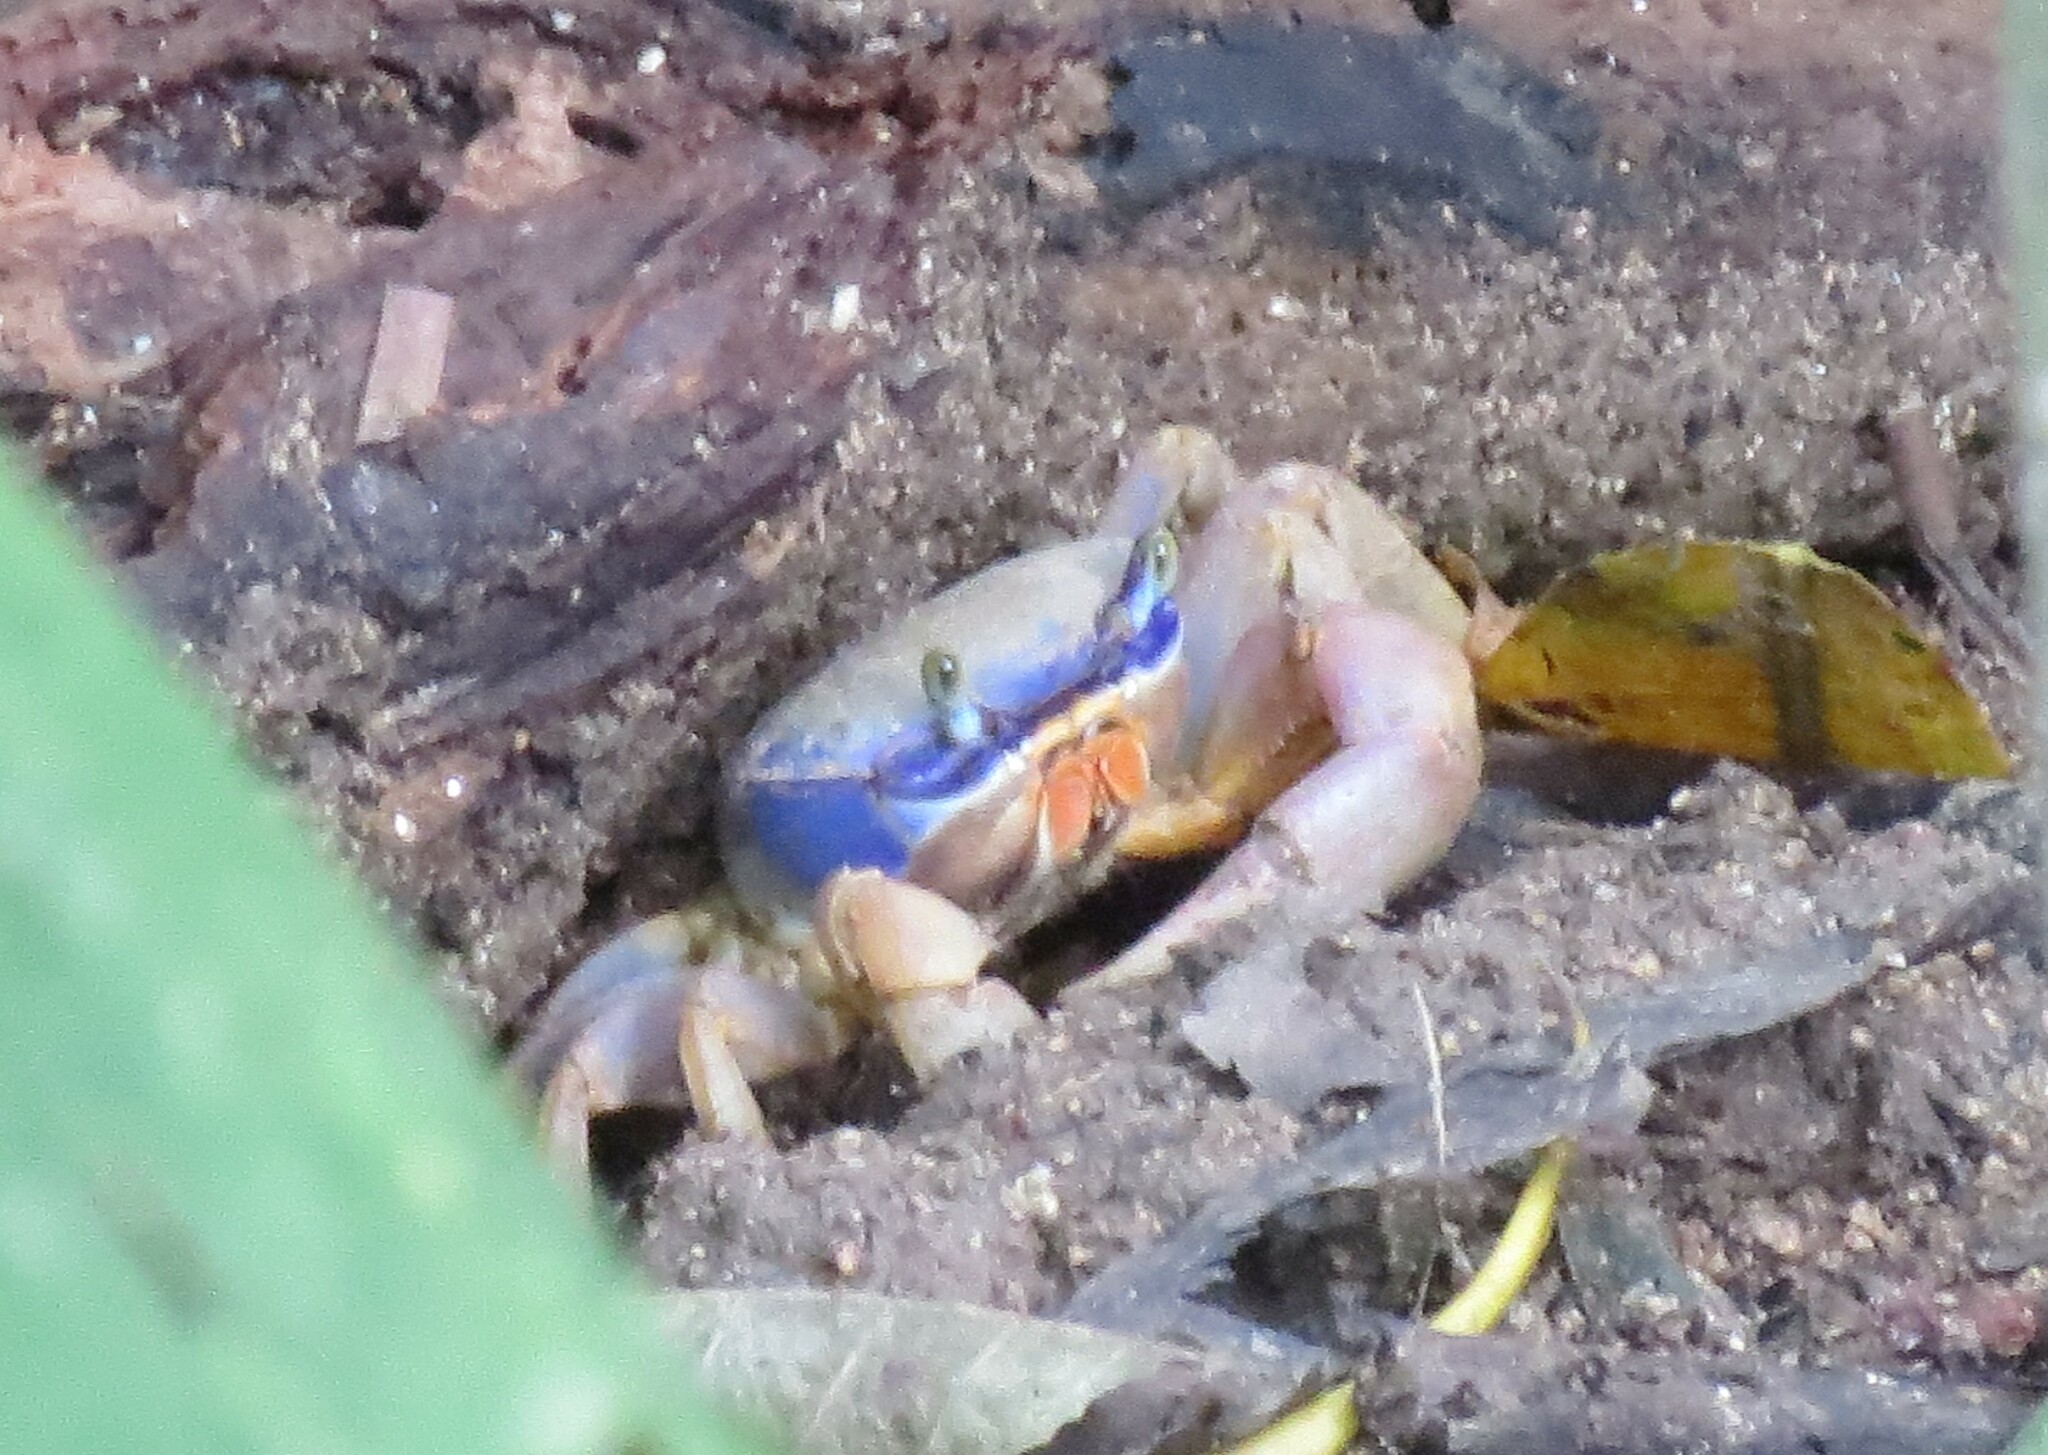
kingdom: Animalia
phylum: Arthropoda
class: Malacostraca
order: Decapoda
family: Gecarcinidae
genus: Cardisoma
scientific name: Cardisoma guanhumi
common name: Great land crab
